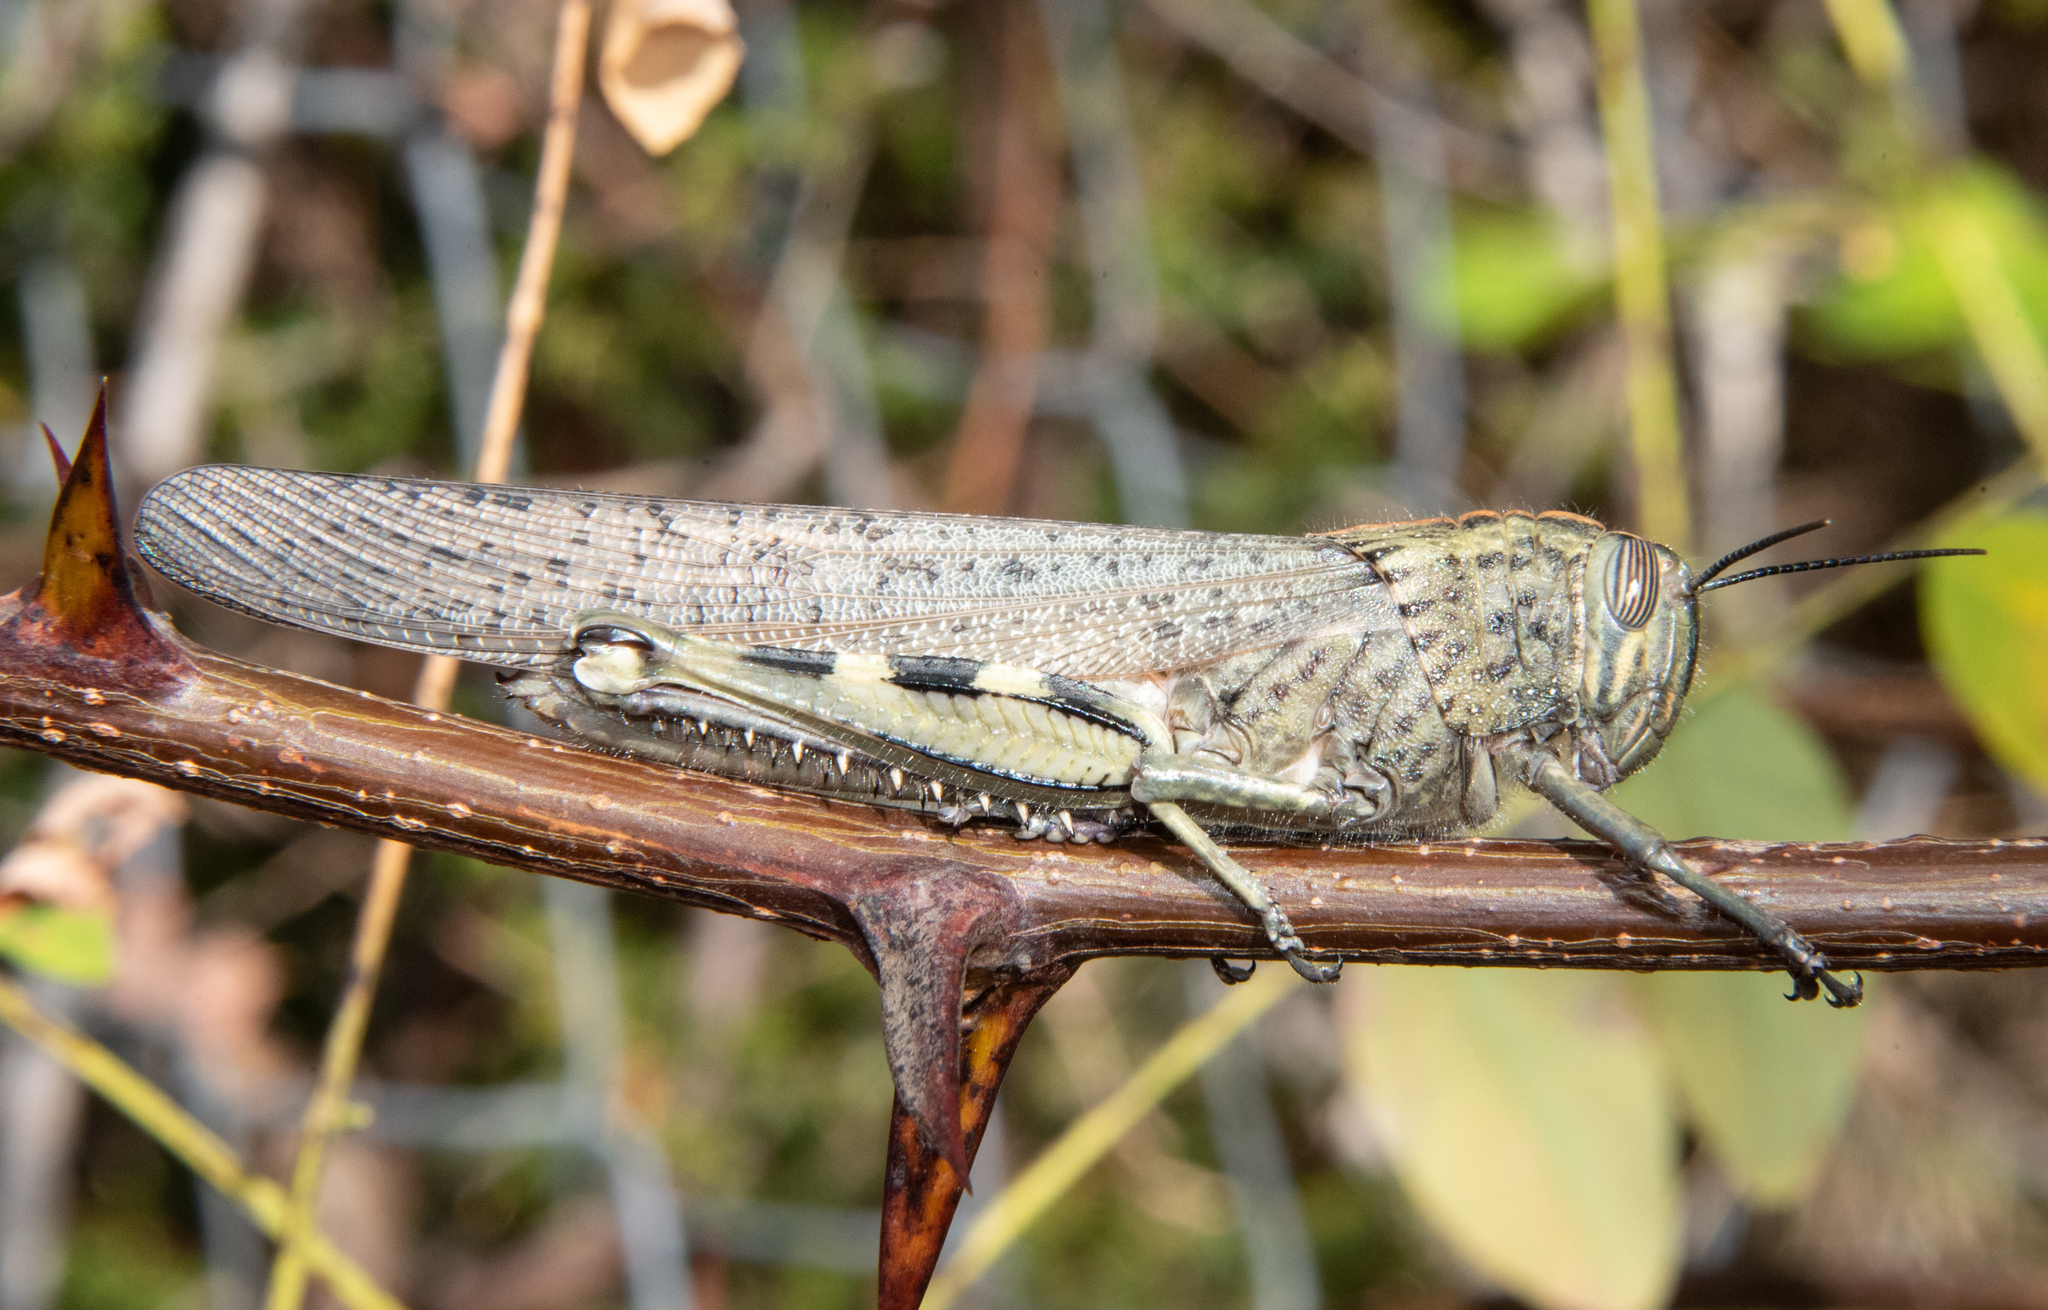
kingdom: Animalia
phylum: Arthropoda
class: Insecta
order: Orthoptera
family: Acrididae
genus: Anacridium
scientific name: Anacridium aegyptium
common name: Egyptian grasshopper
